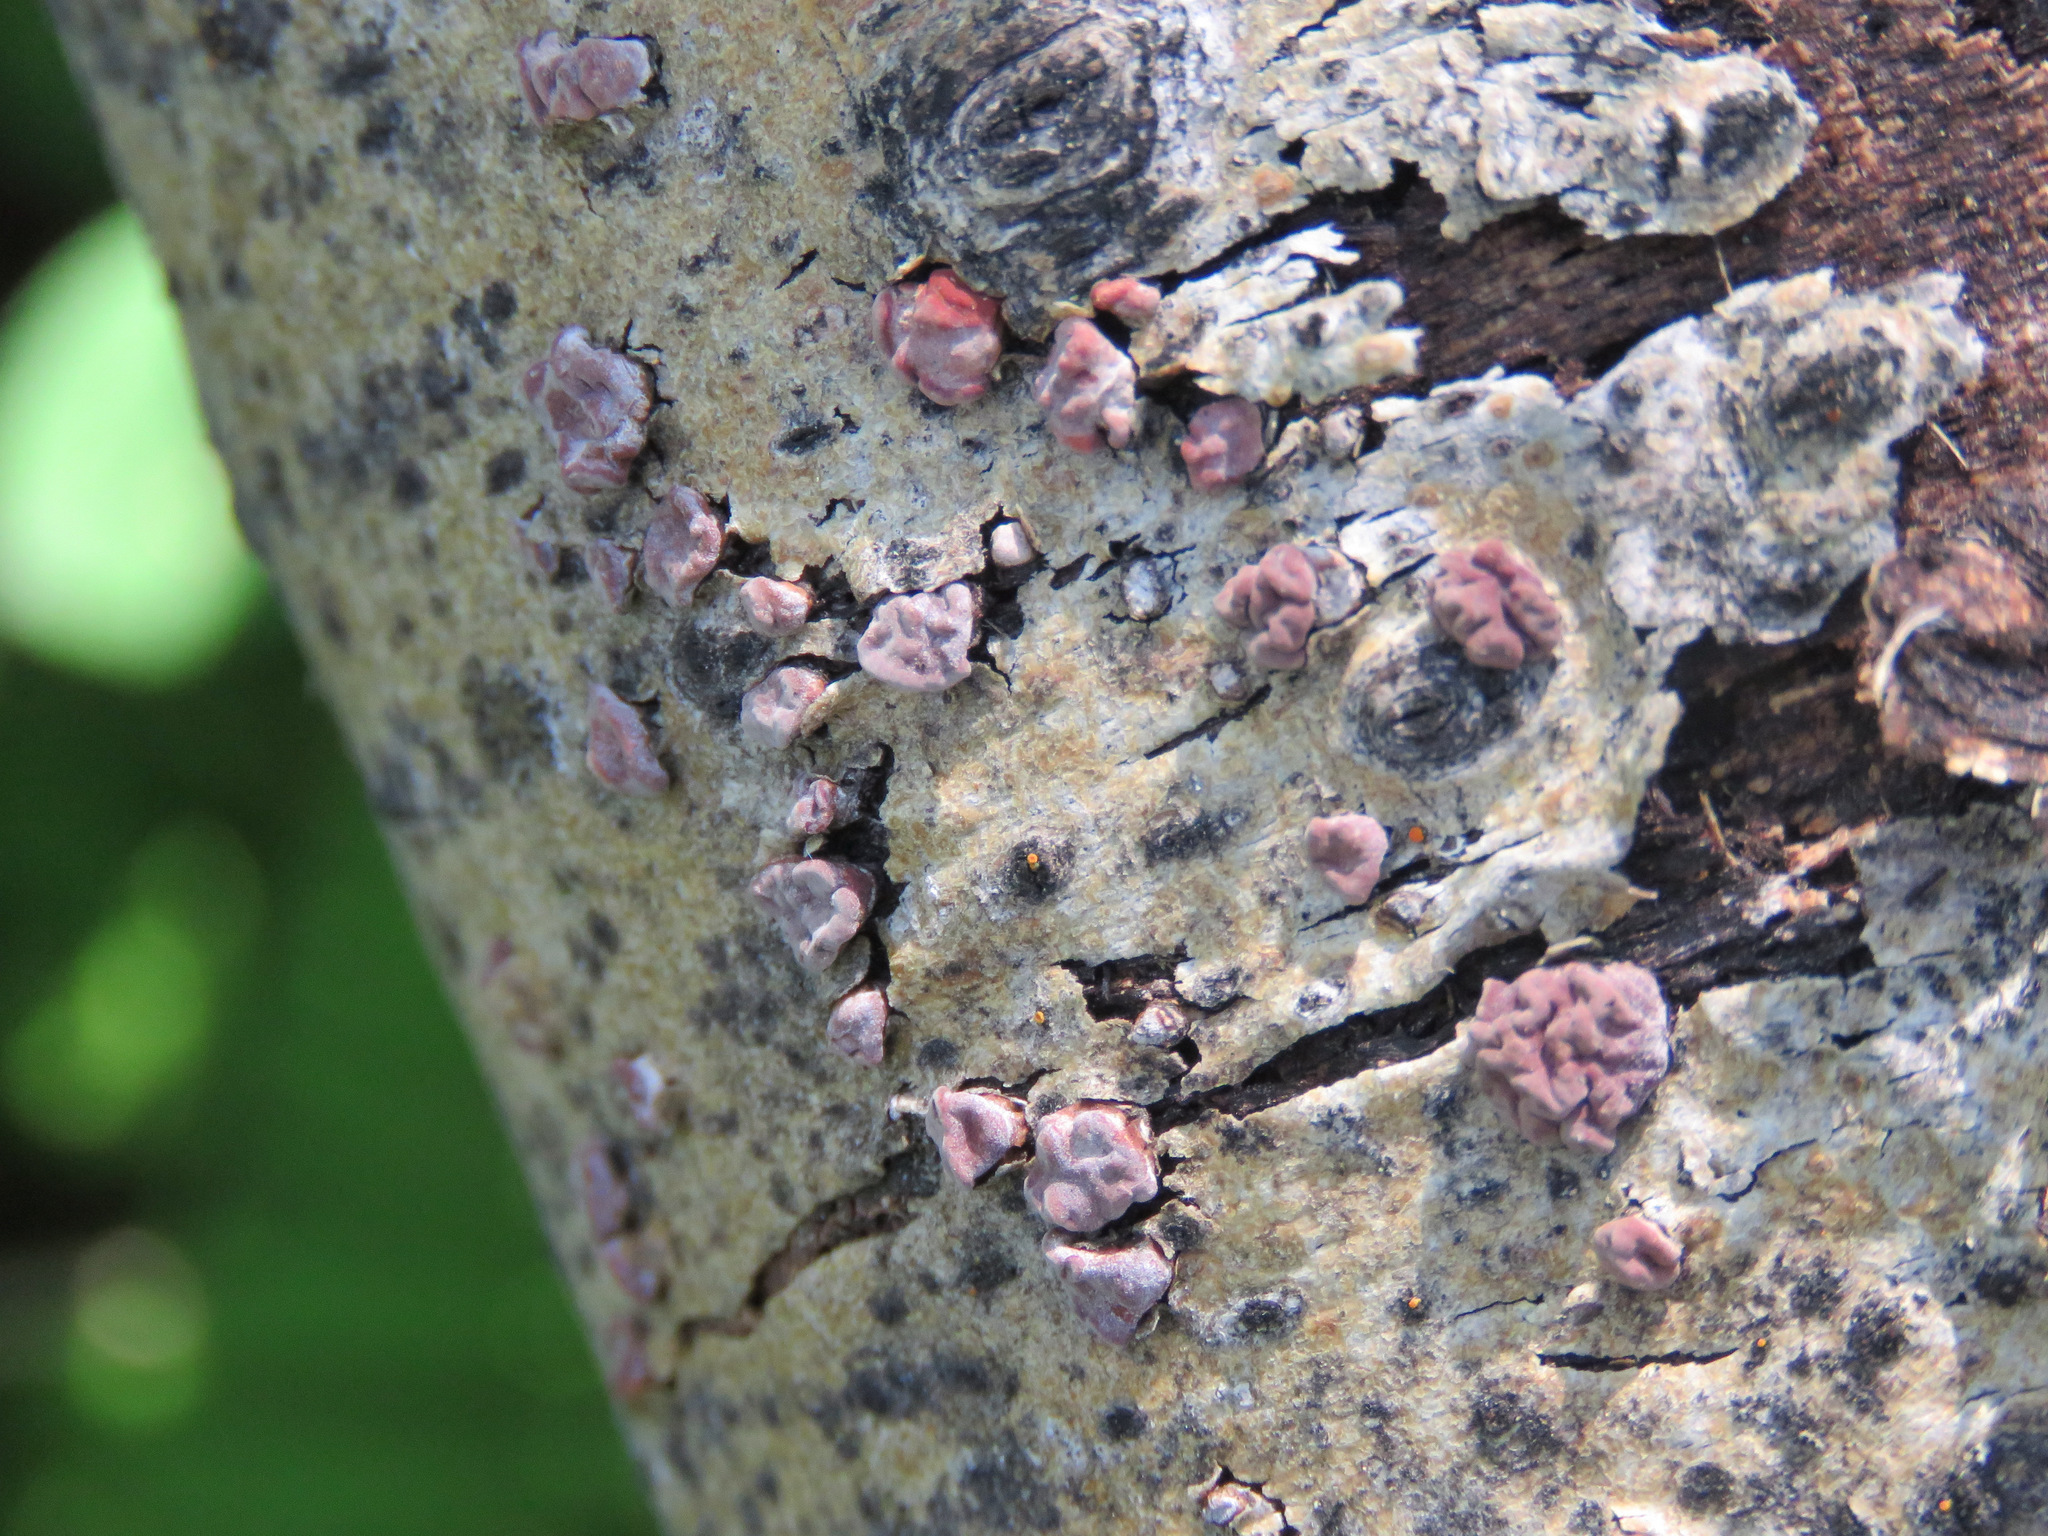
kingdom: Fungi
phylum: Basidiomycota
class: Agaricomycetes
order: Russulales
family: Peniophoraceae
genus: Peniophora
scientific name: Peniophora rufa
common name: Red tree brain fungus
